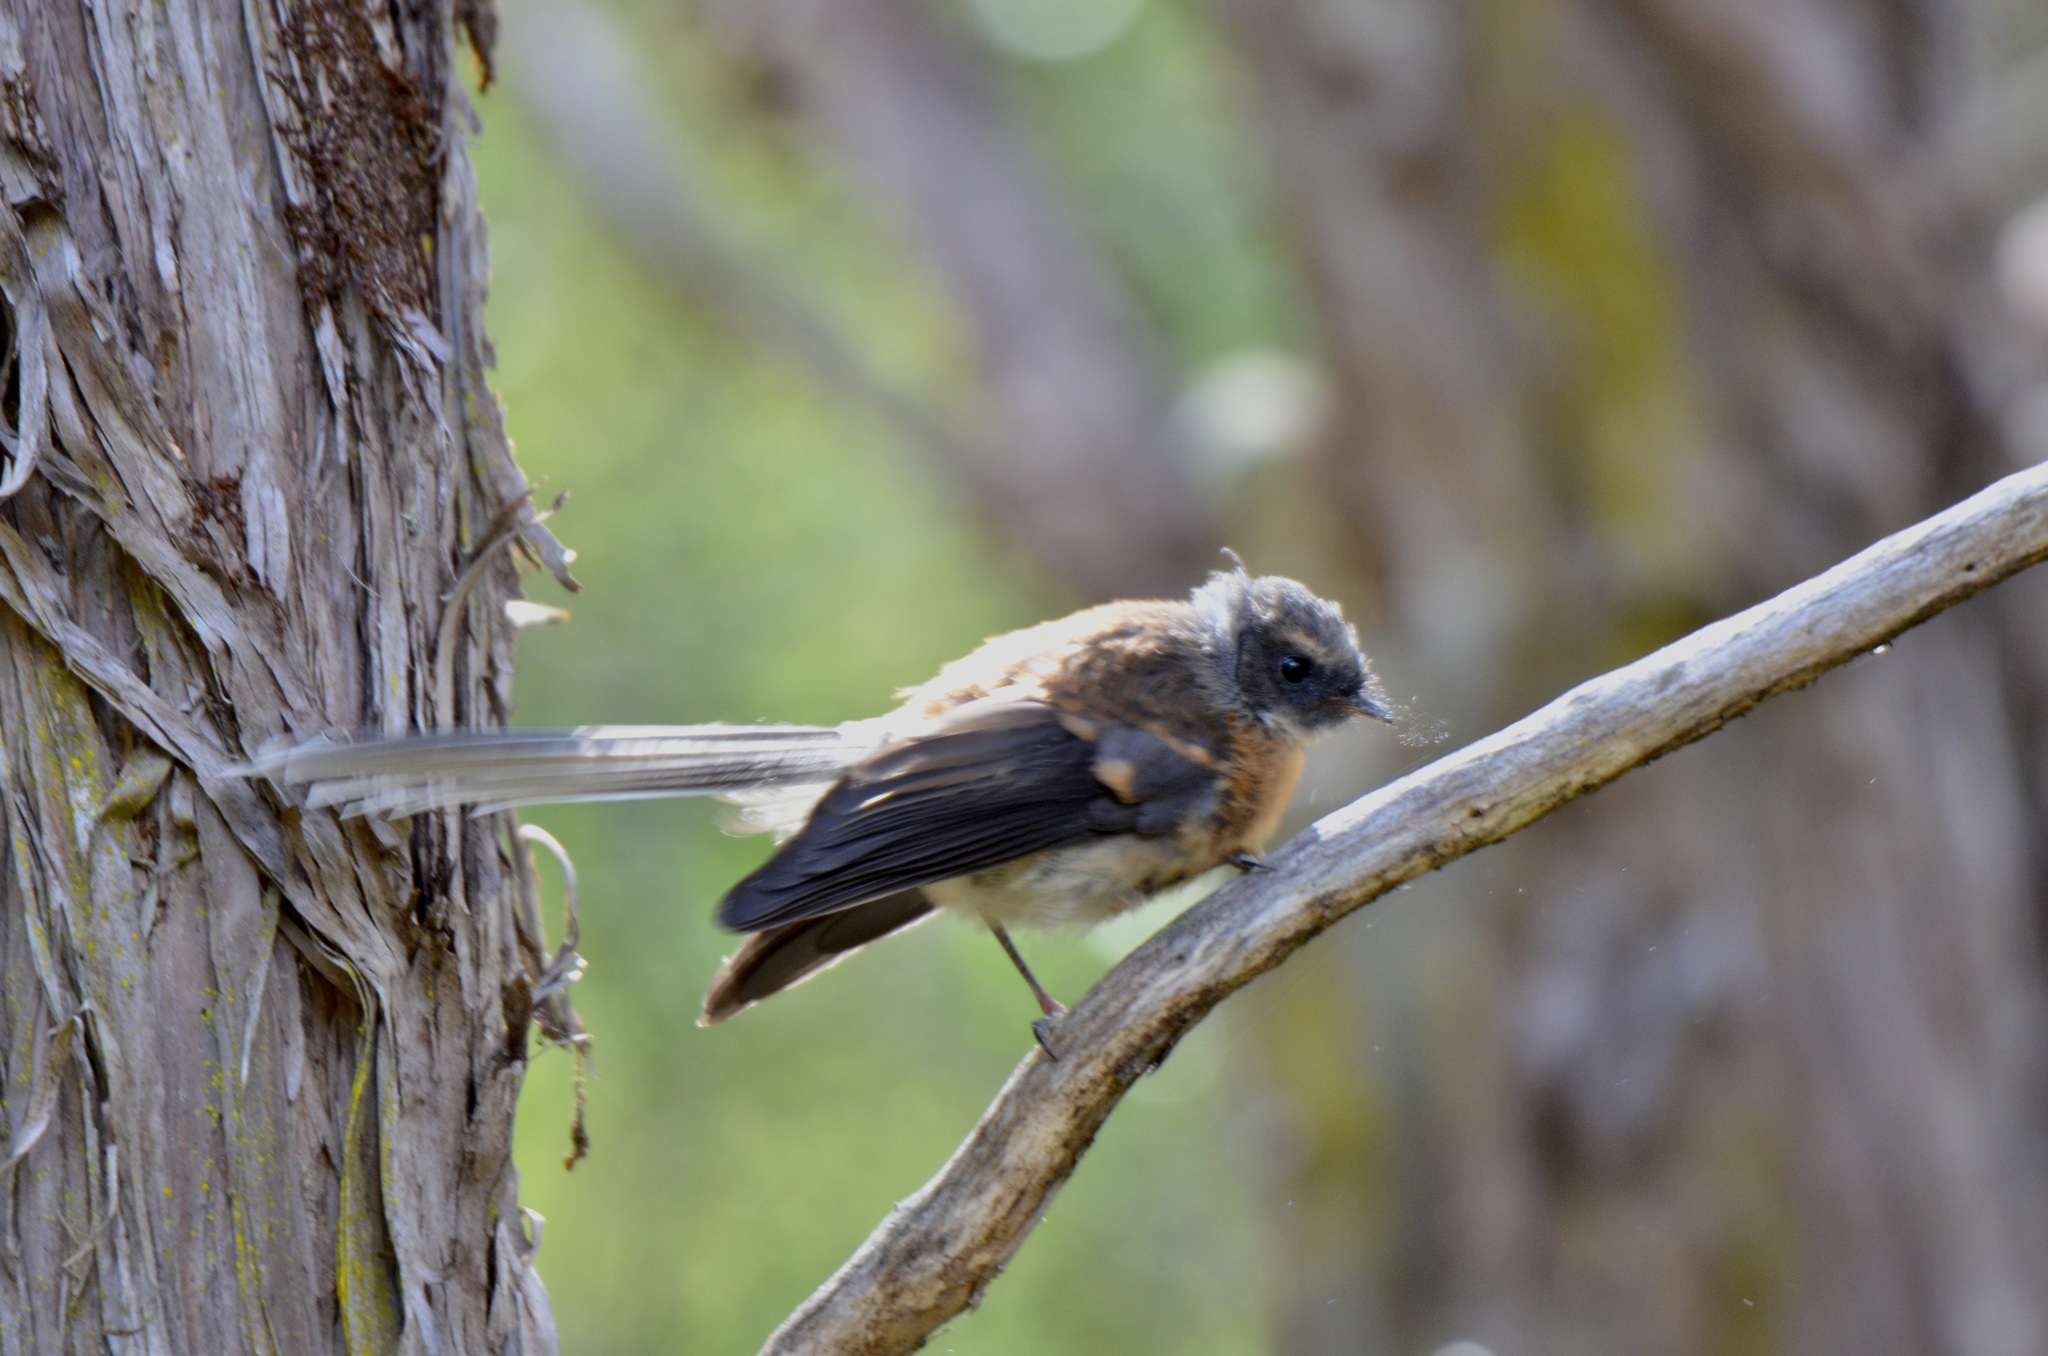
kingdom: Animalia
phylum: Chordata
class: Aves
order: Passeriformes
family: Rhipiduridae
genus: Rhipidura
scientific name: Rhipidura fuliginosa
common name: New zealand fantail
